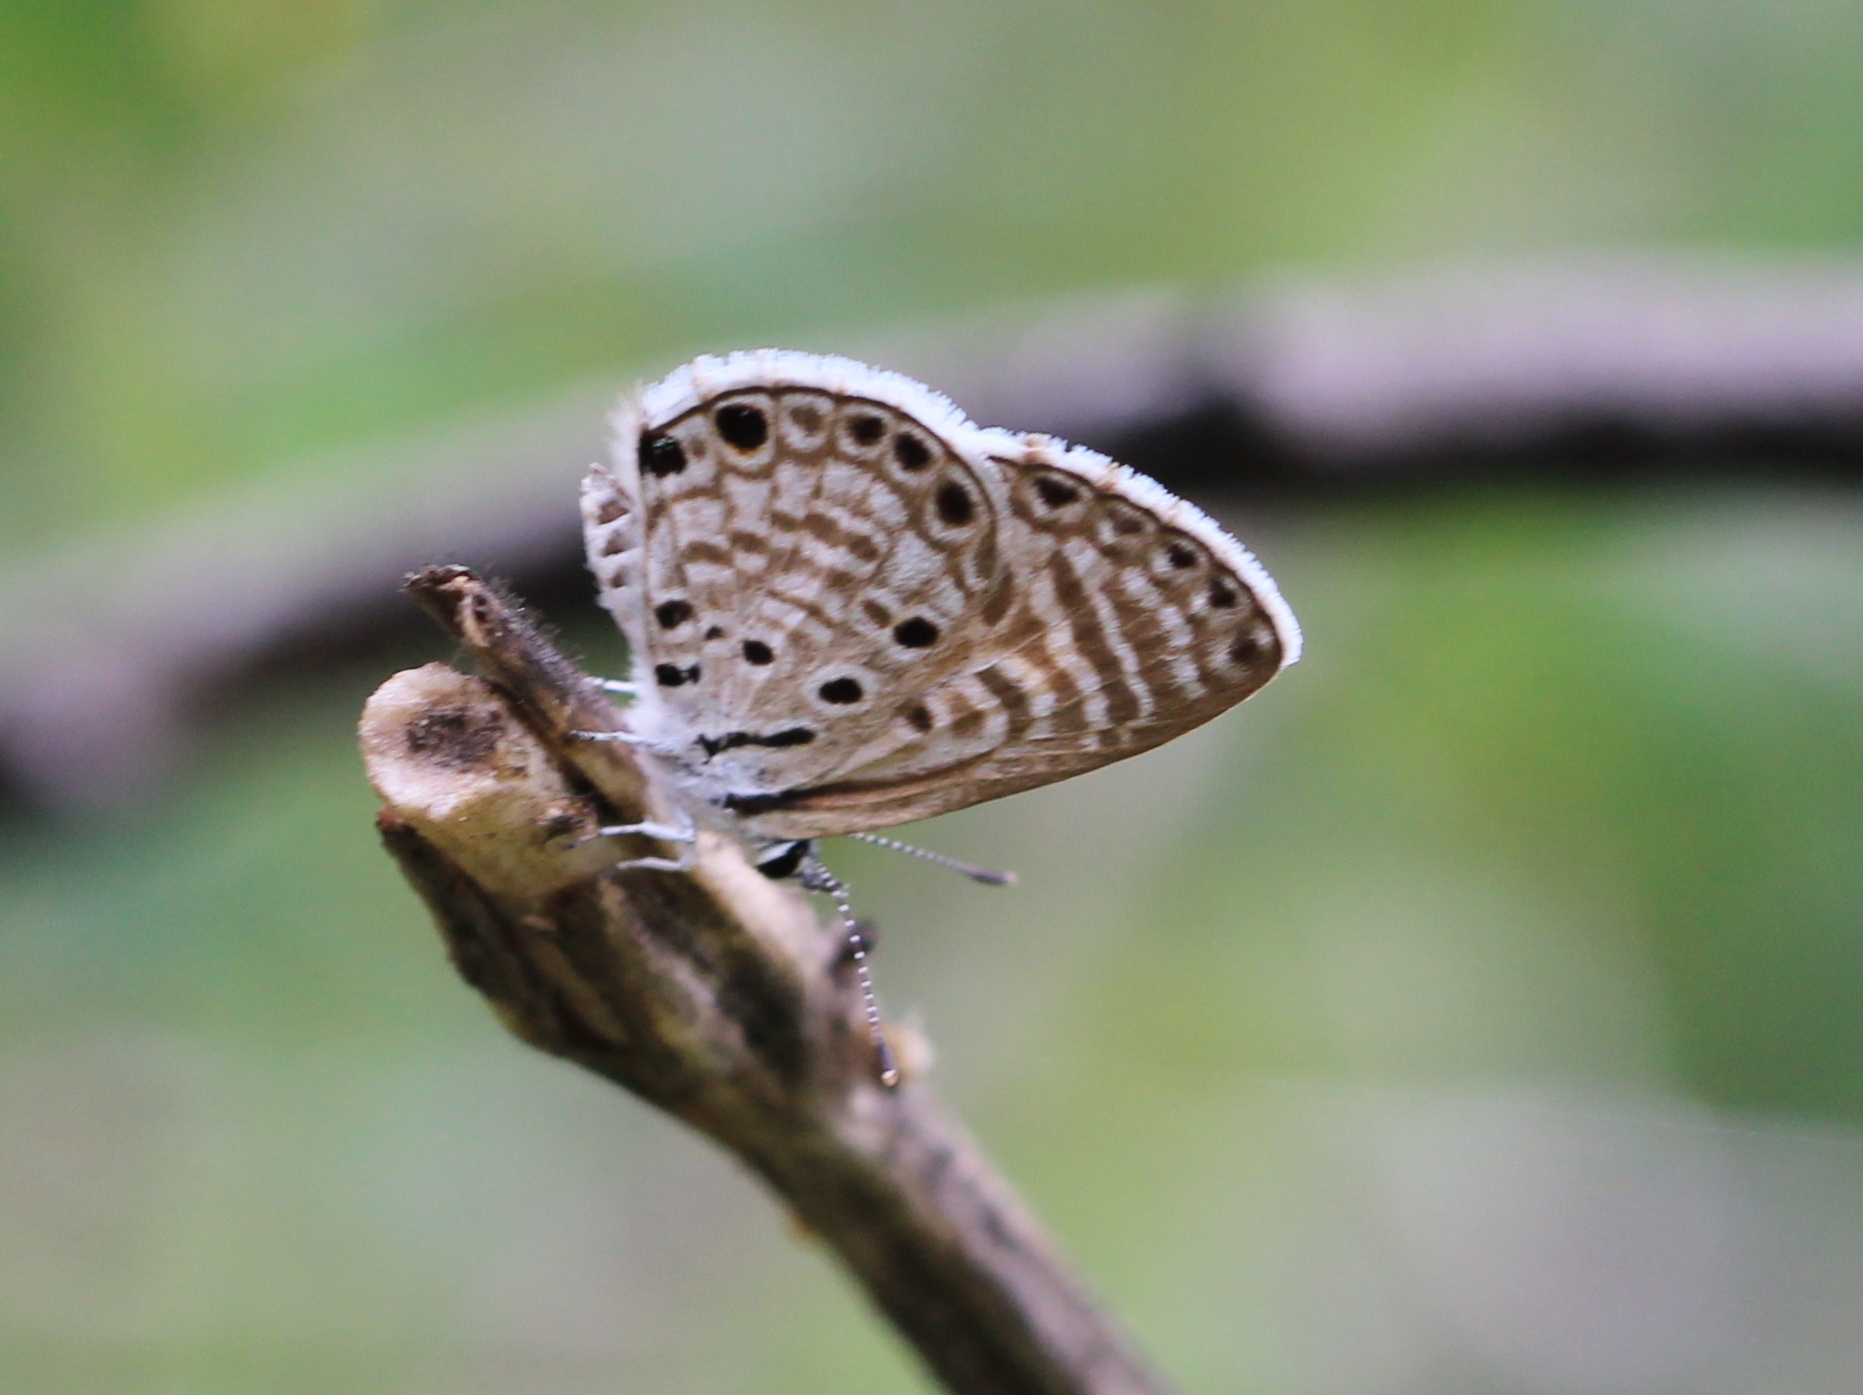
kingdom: Animalia
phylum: Arthropoda
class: Insecta
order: Lepidoptera
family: Lycaenidae
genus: Azanus
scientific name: Azanus jesous
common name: African babul blue
